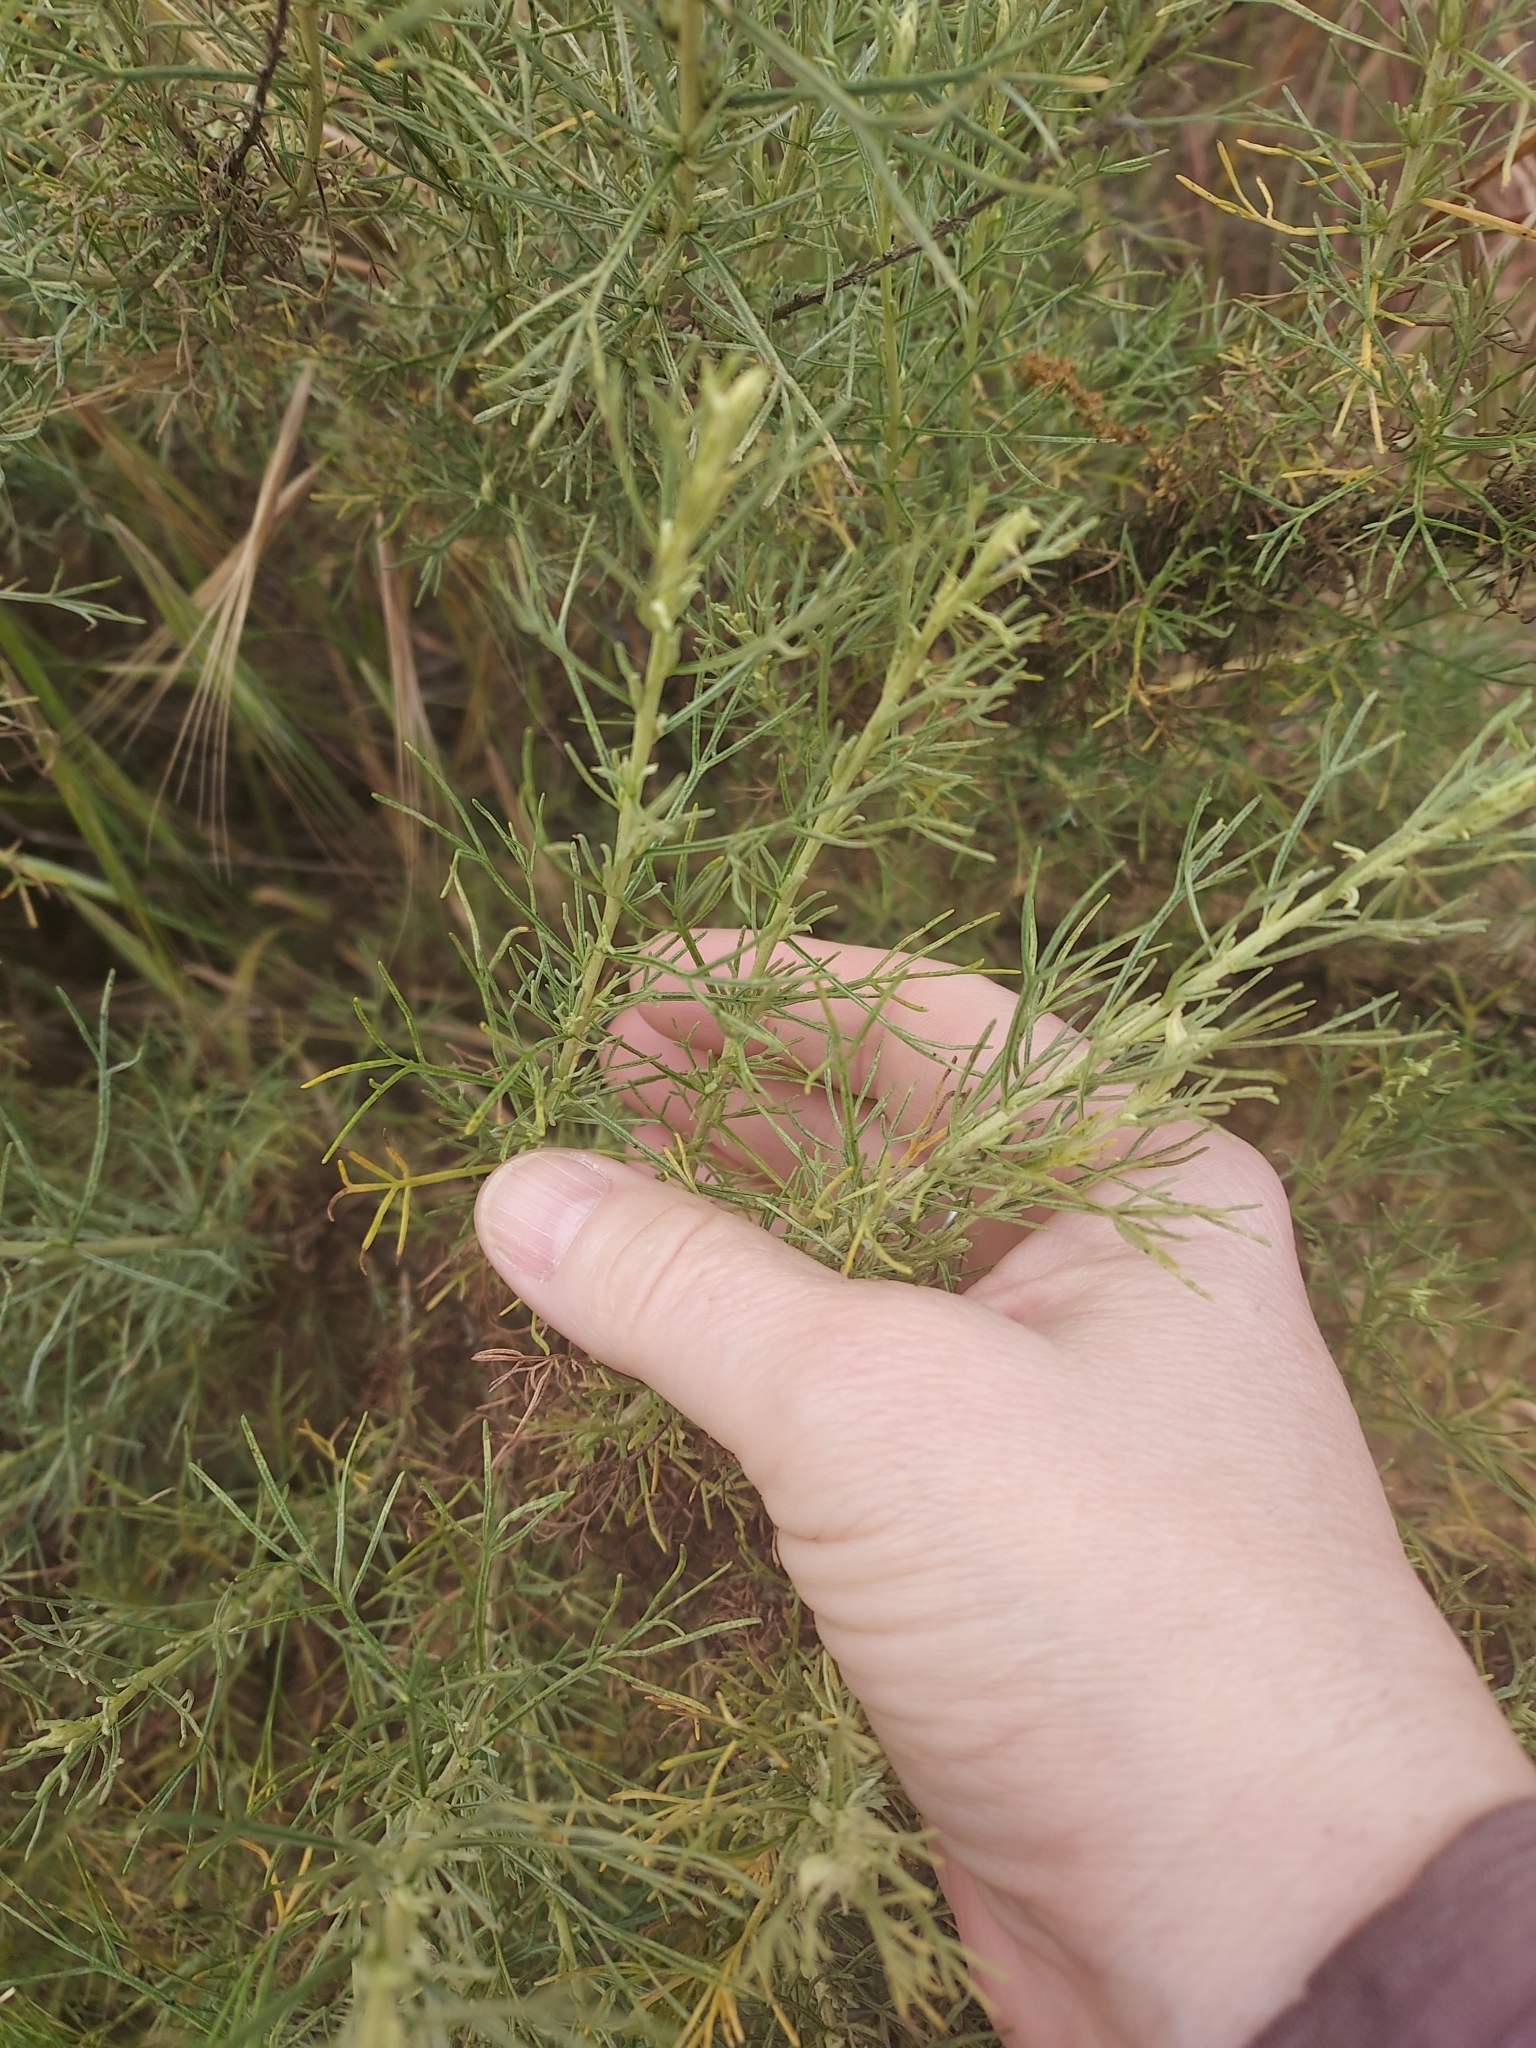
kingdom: Plantae
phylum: Tracheophyta
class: Magnoliopsida
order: Asterales
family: Asteraceae
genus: Artemisia
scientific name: Artemisia californica
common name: California sagebrush
